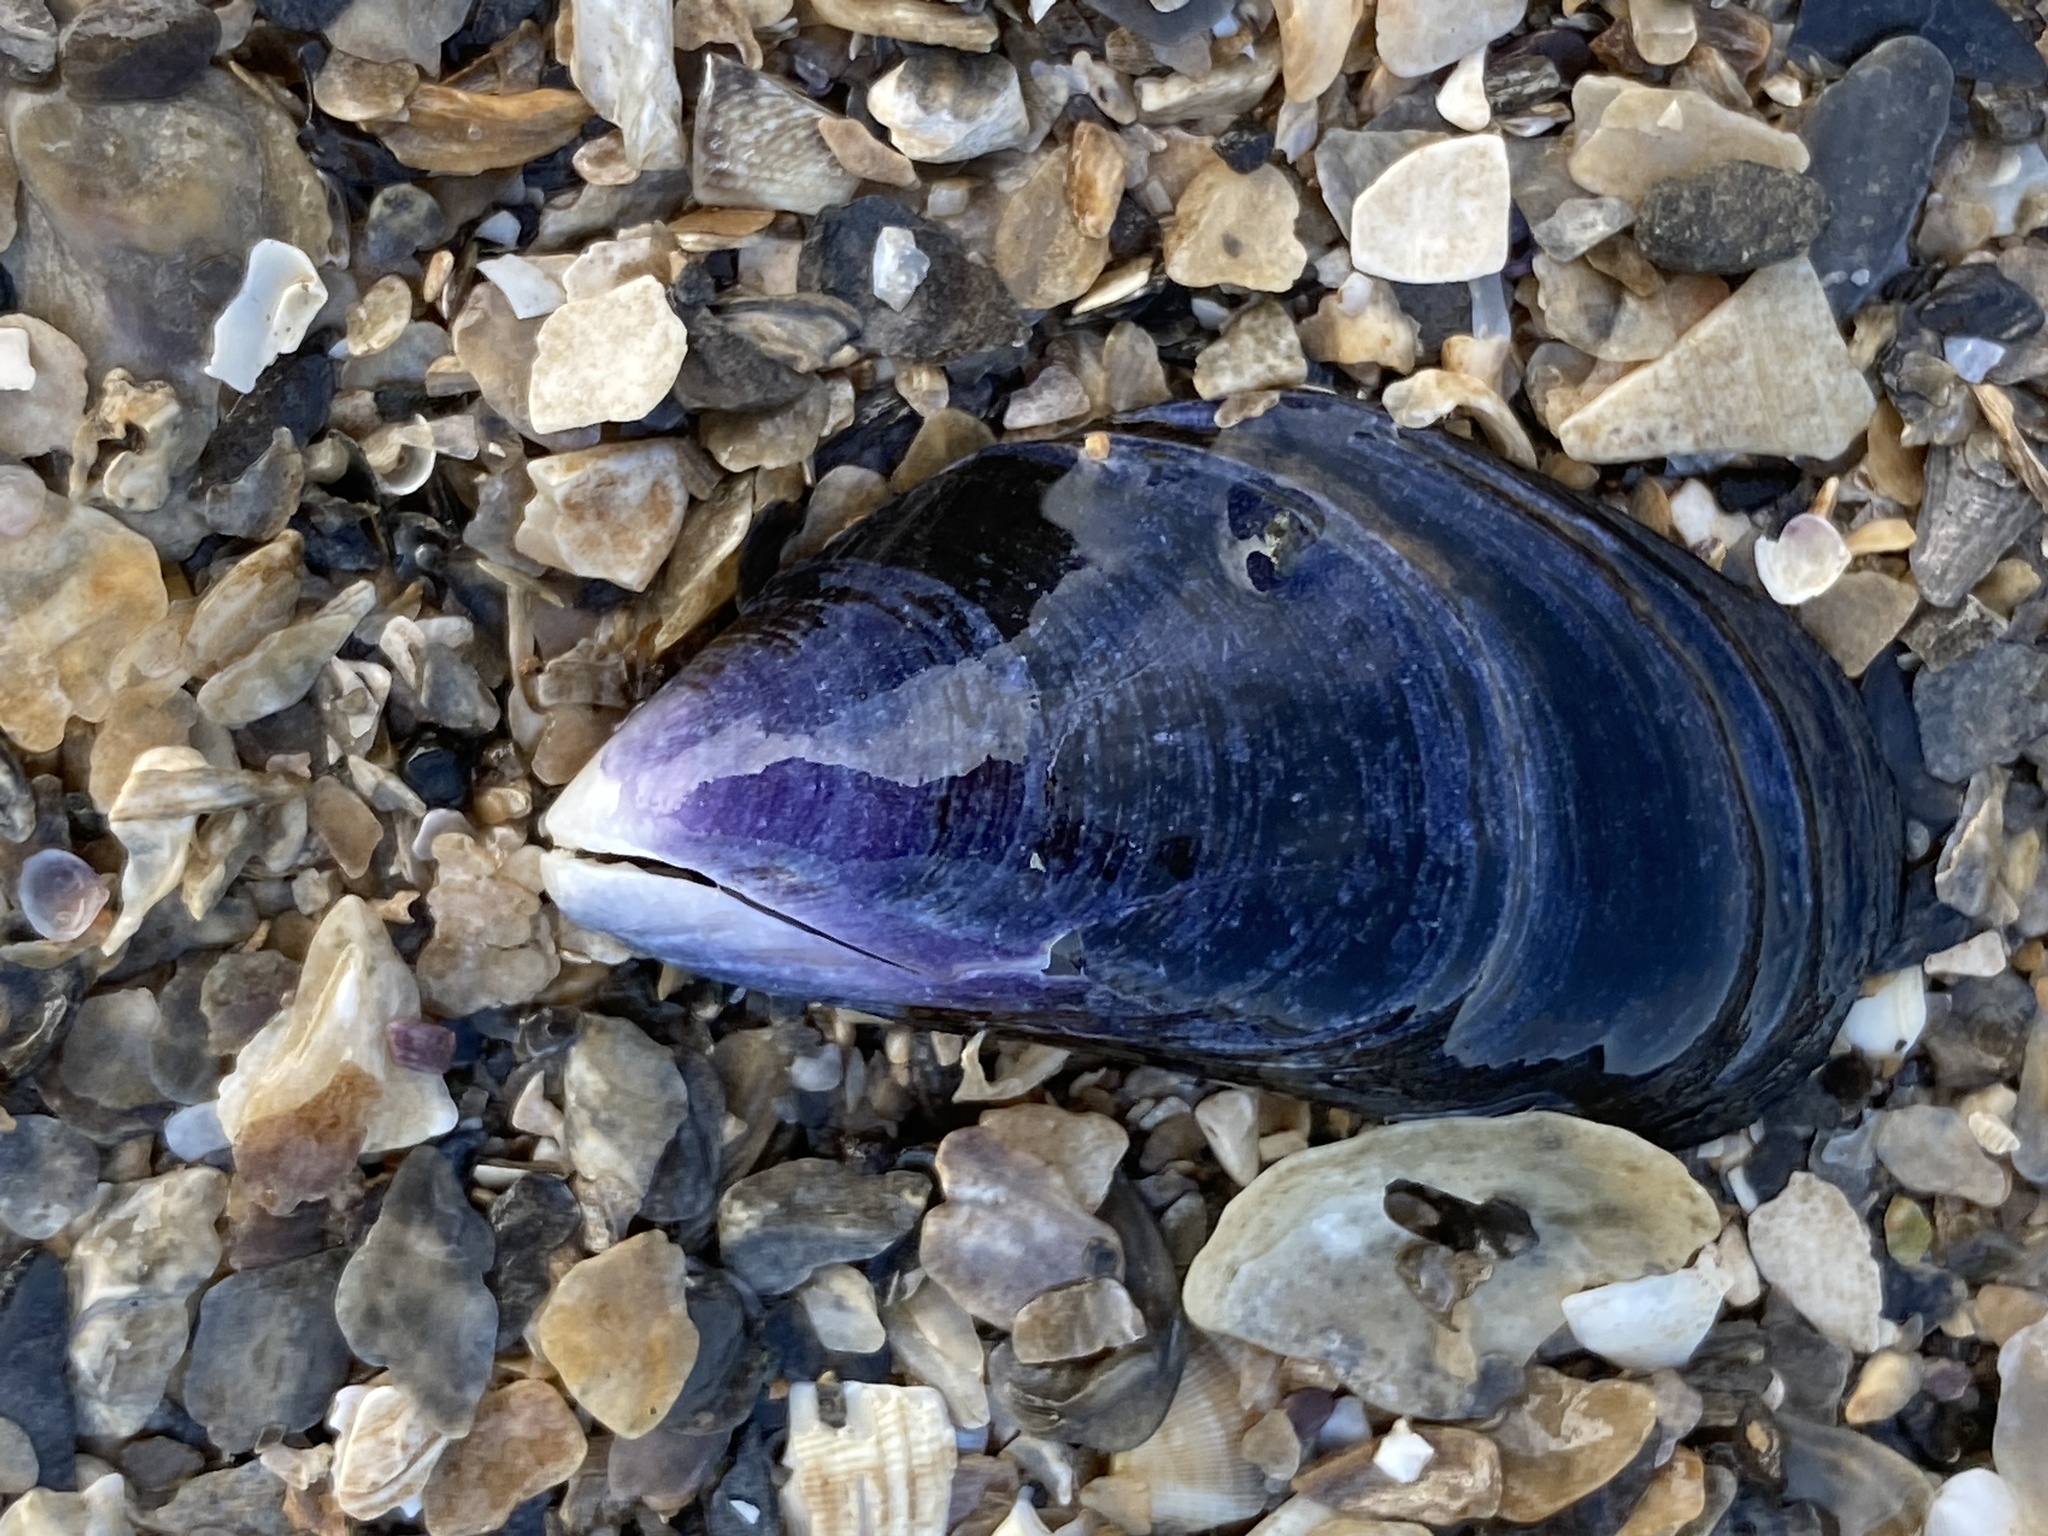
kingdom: Animalia
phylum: Mollusca
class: Bivalvia
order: Mytilida
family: Mytilidae
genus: Mytilus
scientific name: Mytilus
